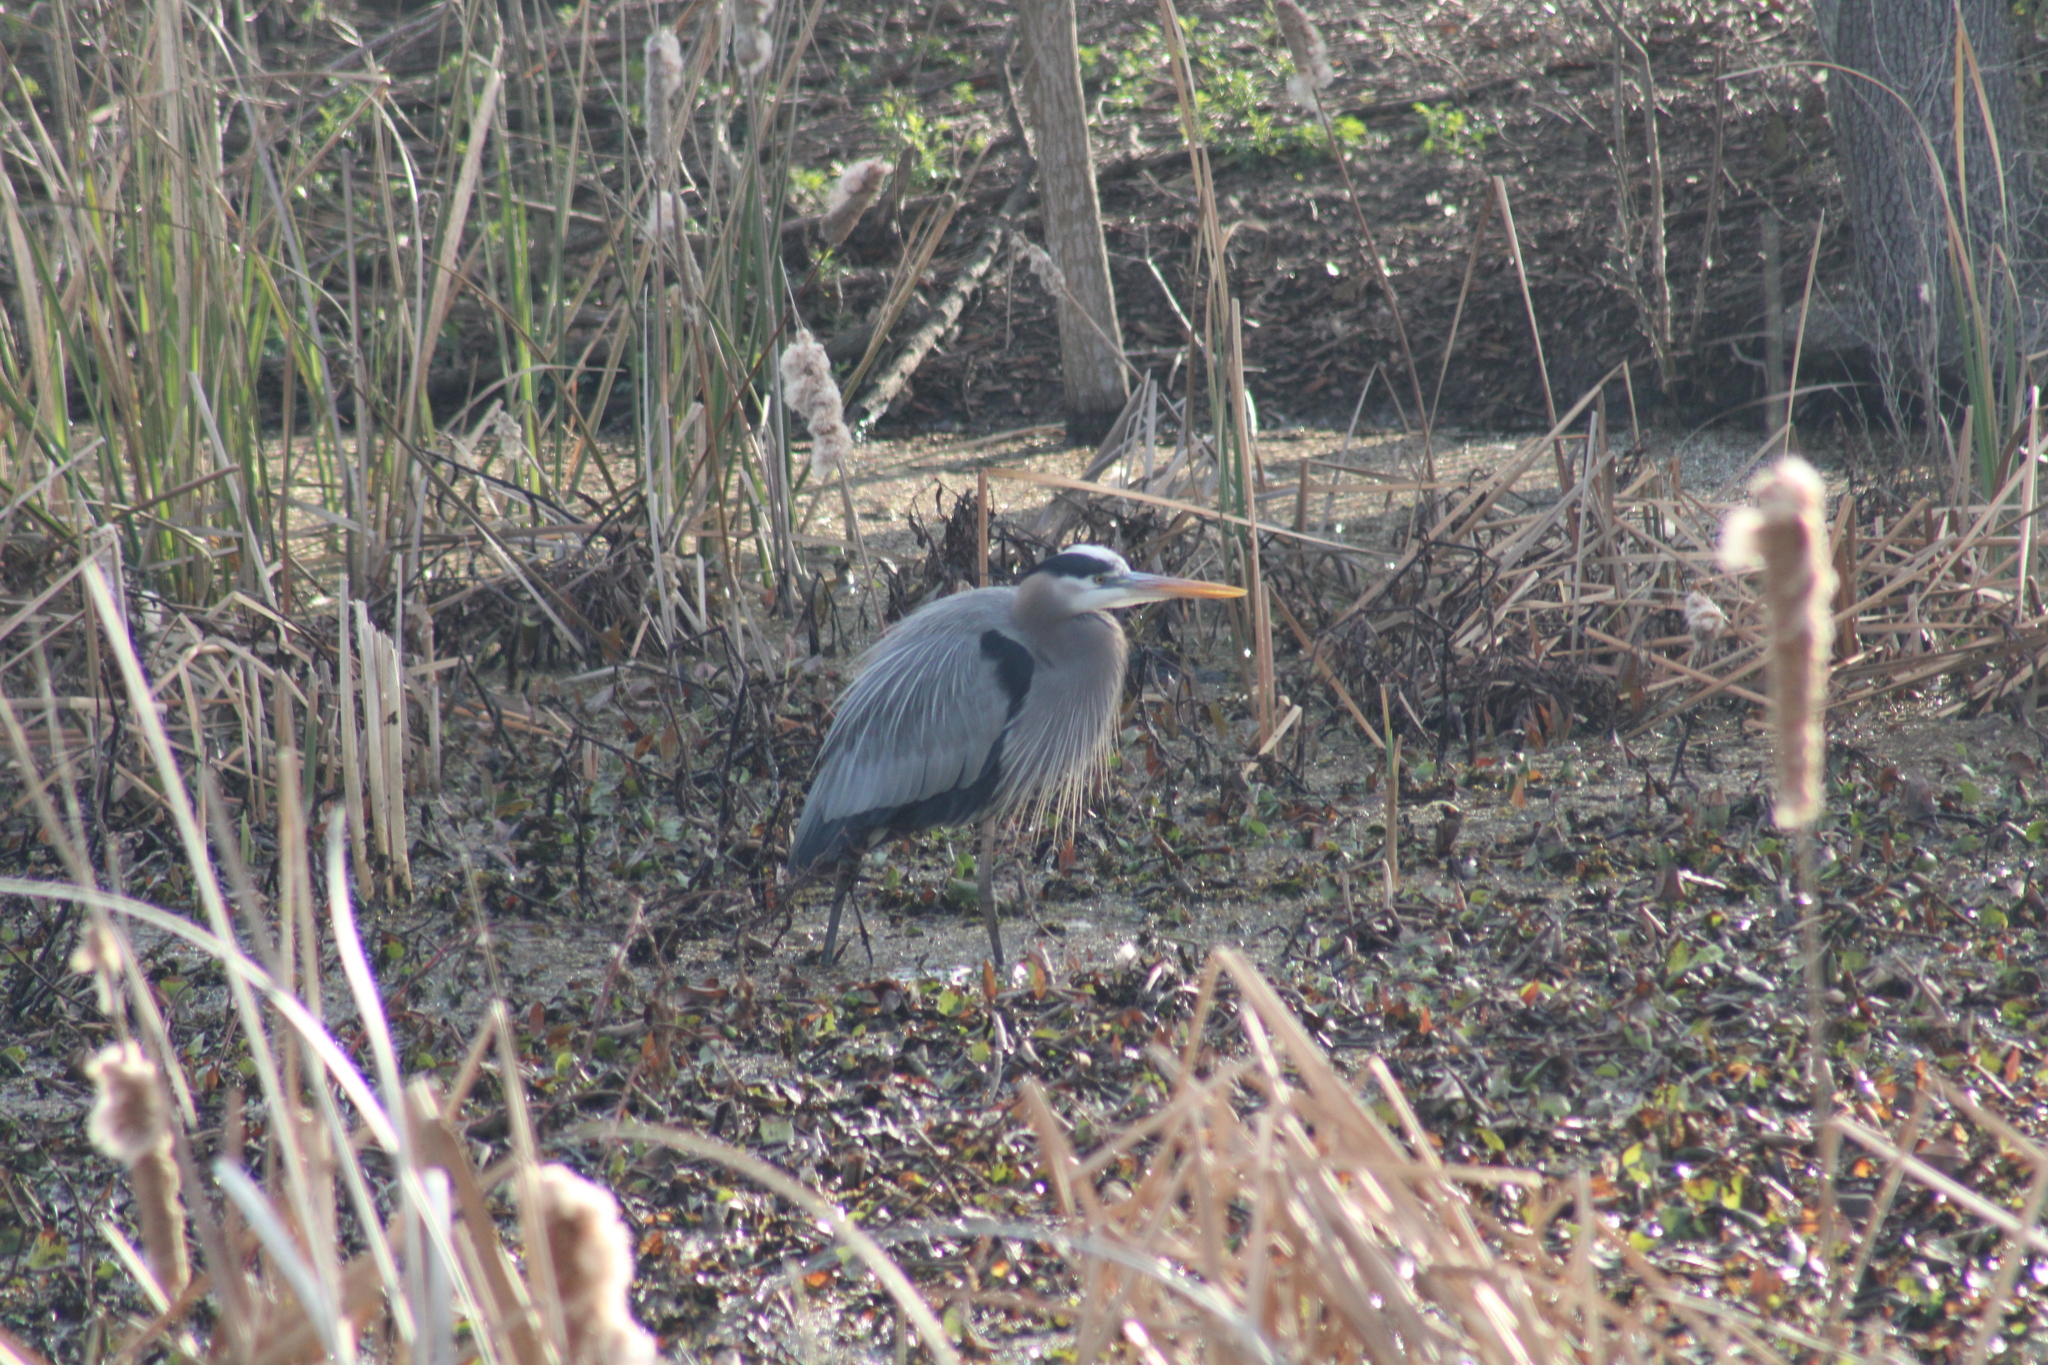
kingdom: Animalia
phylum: Chordata
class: Aves
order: Pelecaniformes
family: Ardeidae
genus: Ardea
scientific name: Ardea herodias
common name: Great blue heron
